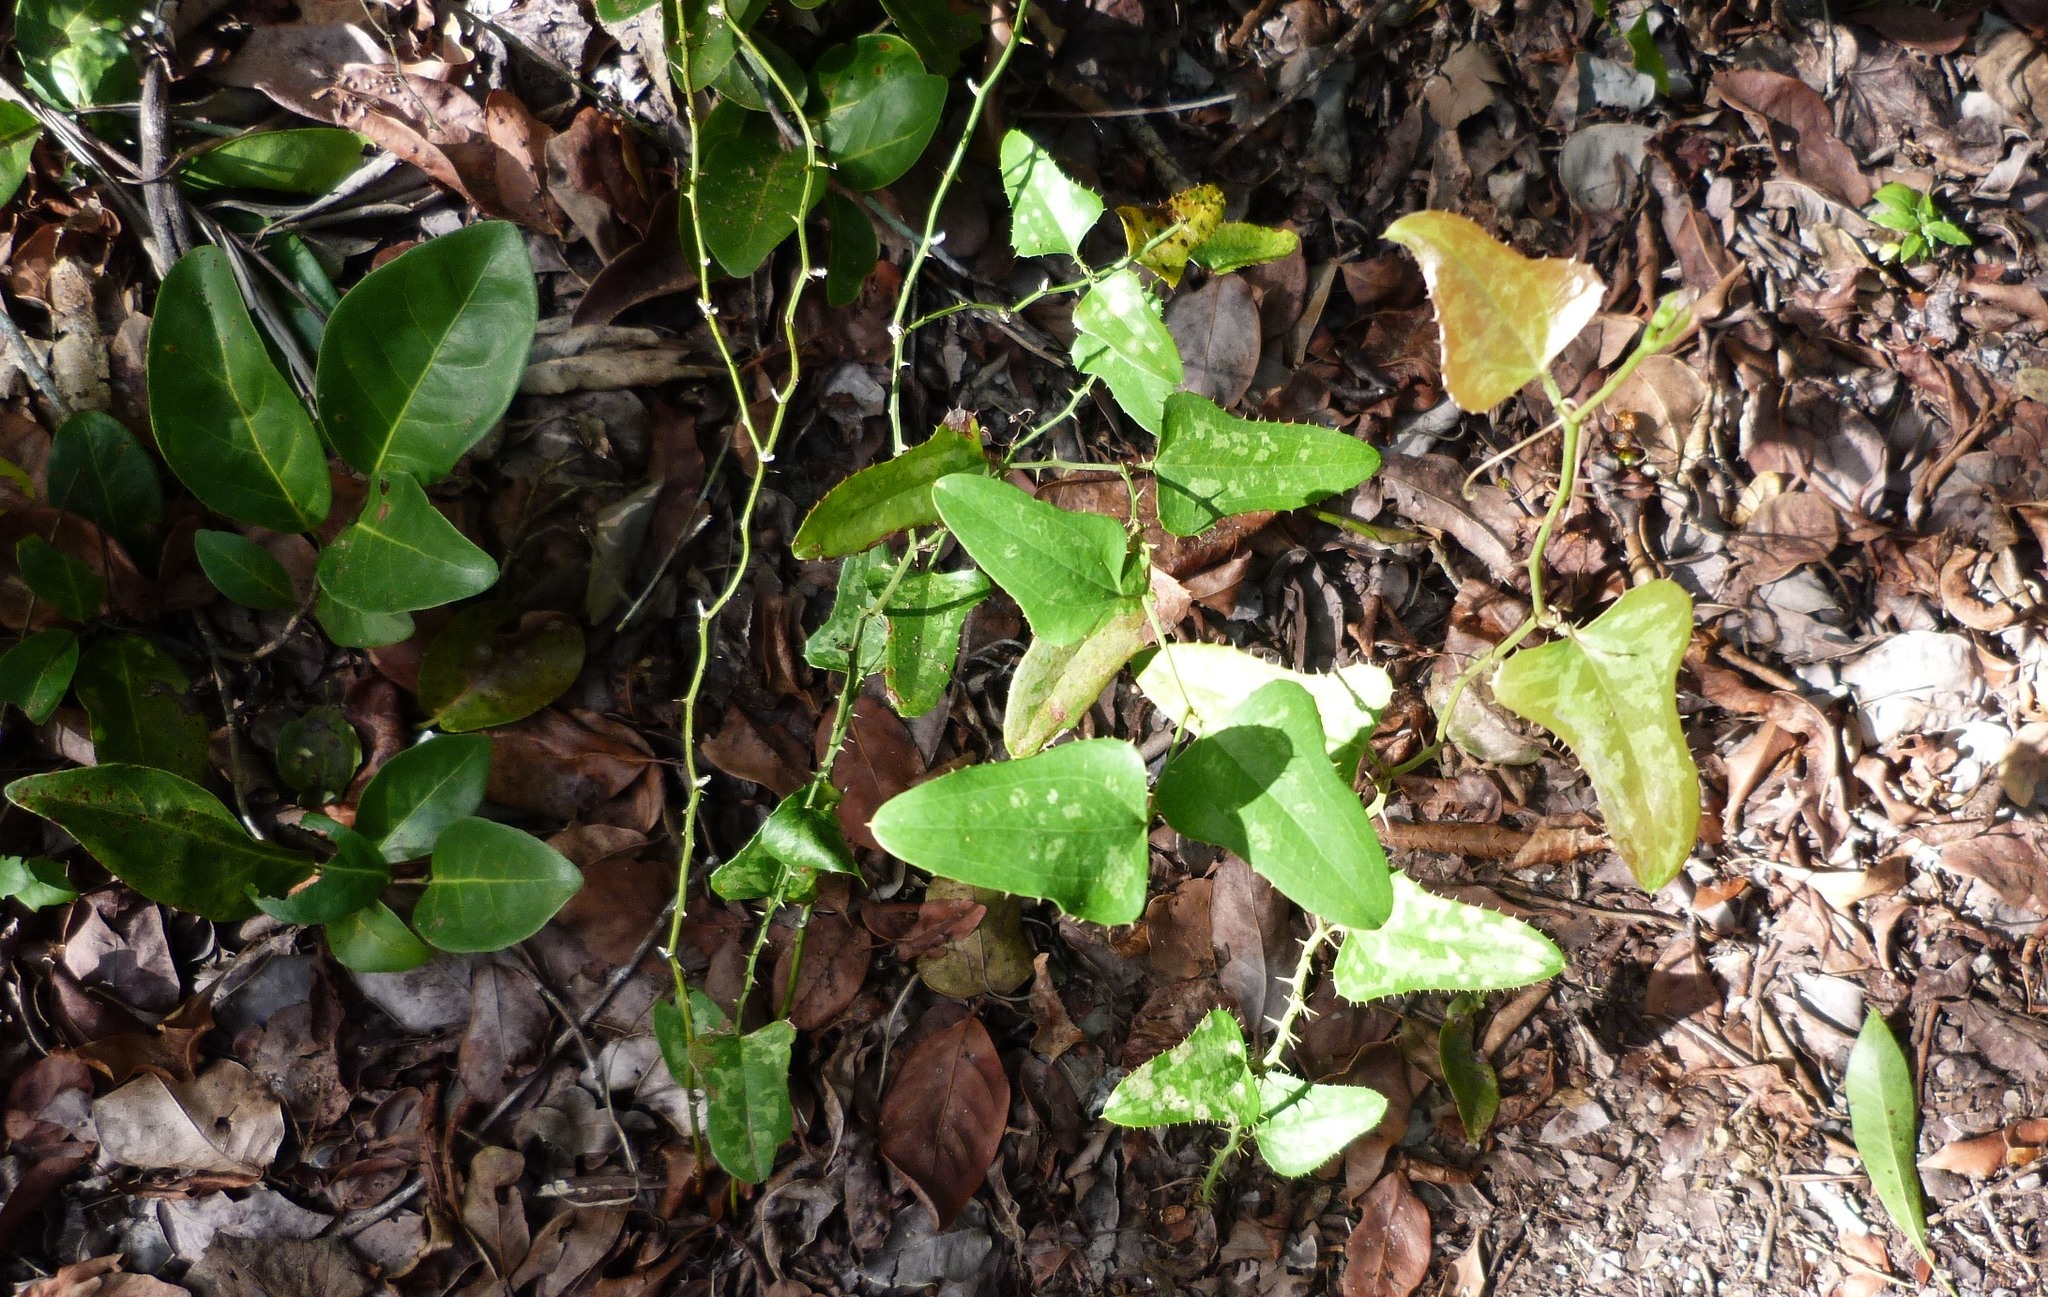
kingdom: Plantae
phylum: Tracheophyta
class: Liliopsida
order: Liliales
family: Smilacaceae
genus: Smilax
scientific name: Smilax bona-nox
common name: Catbrier
